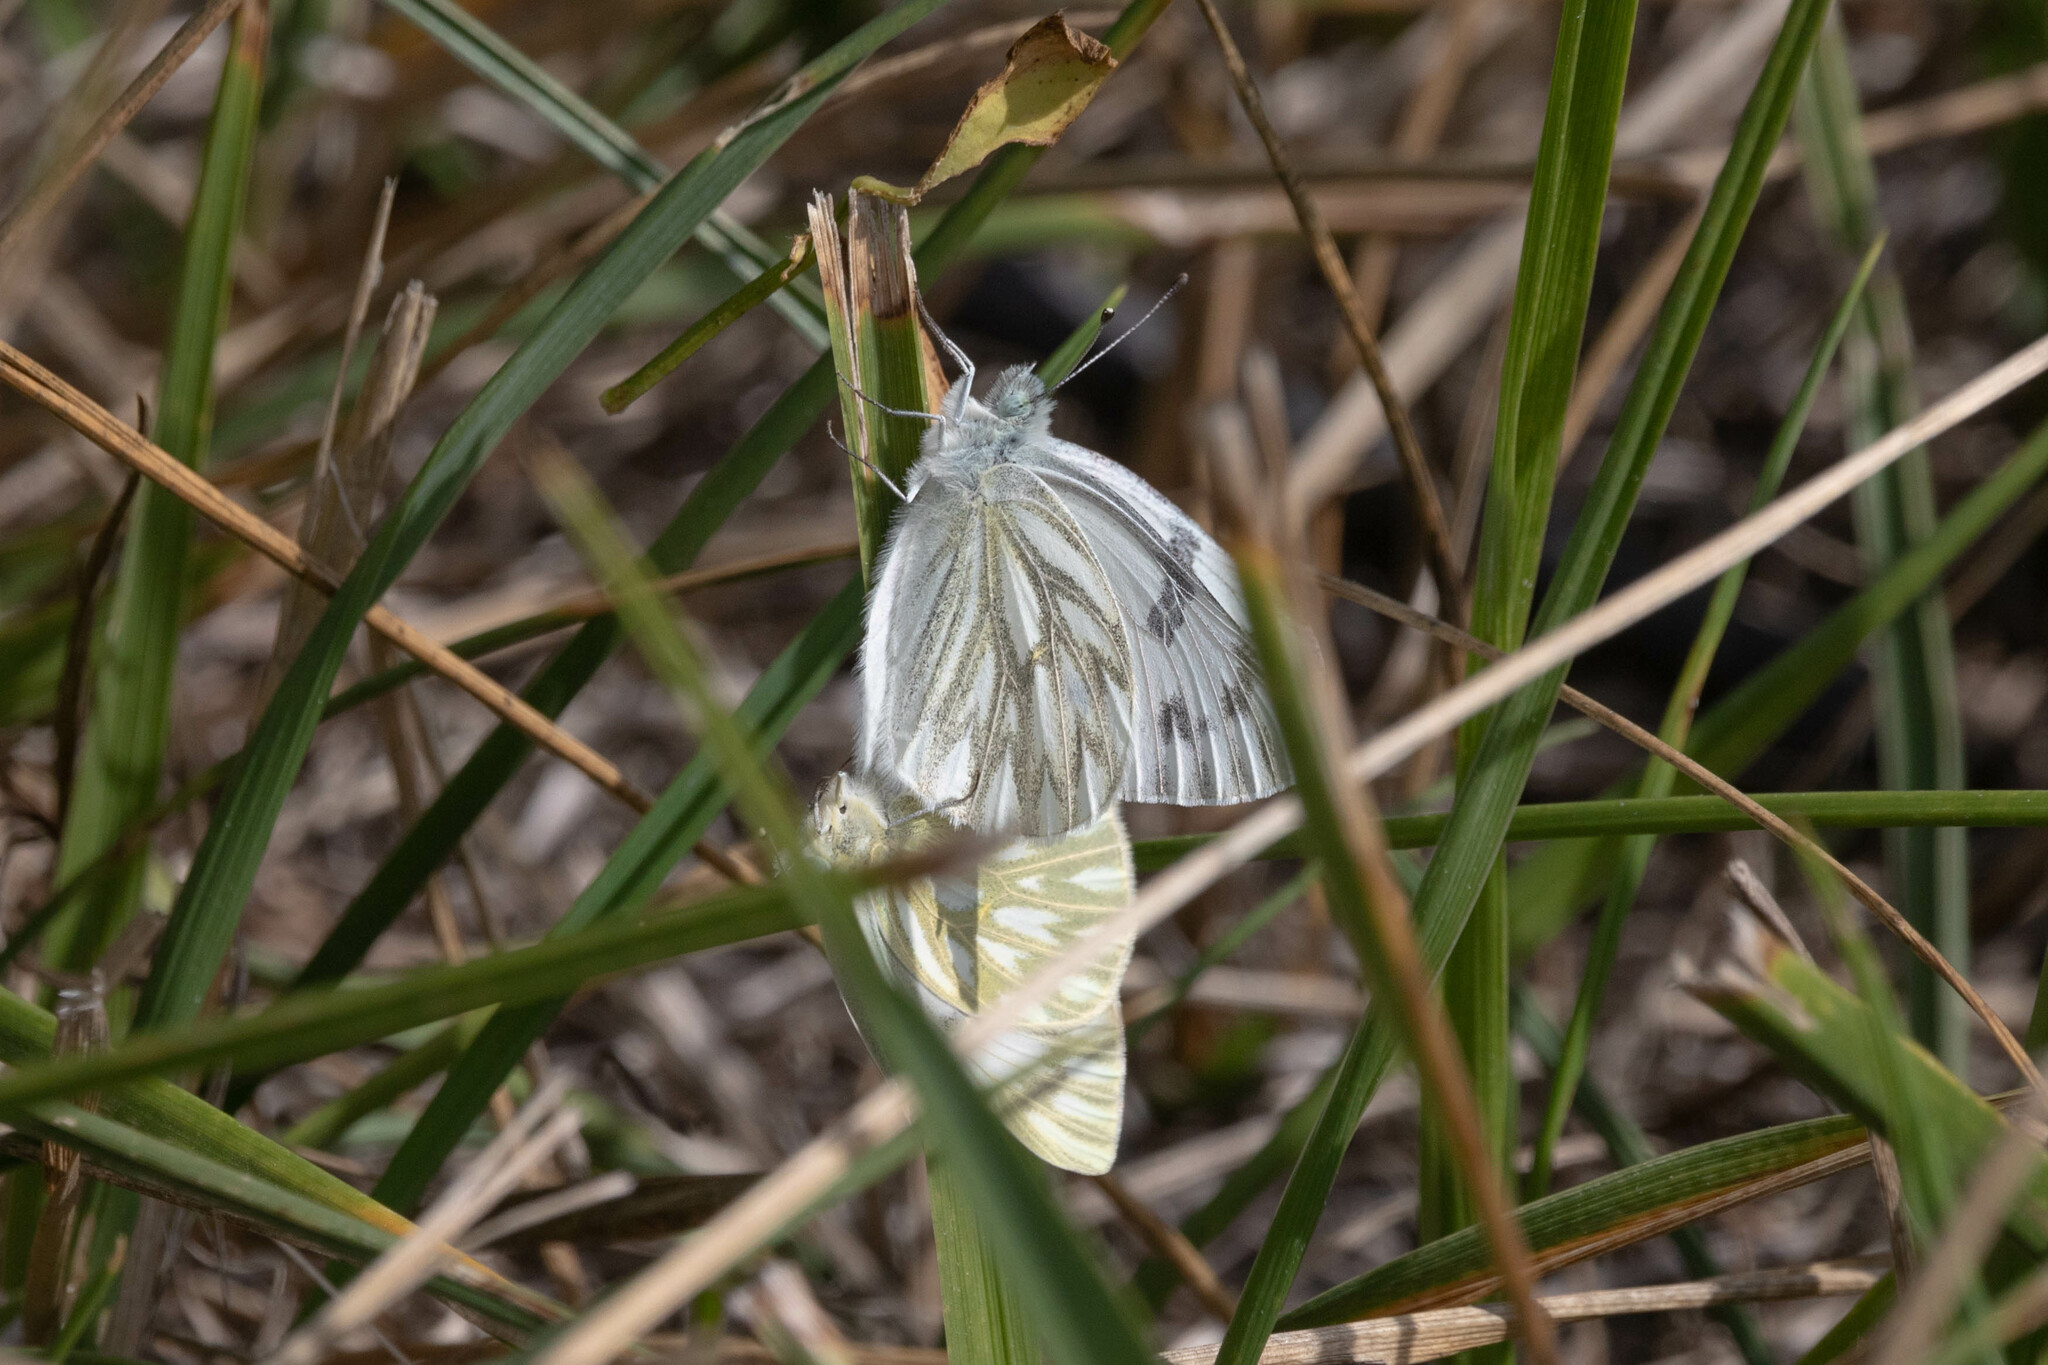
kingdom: Animalia
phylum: Arthropoda
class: Insecta
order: Lepidoptera
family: Pieridae
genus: Pontia
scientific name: Pontia occidentalis
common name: Western white
